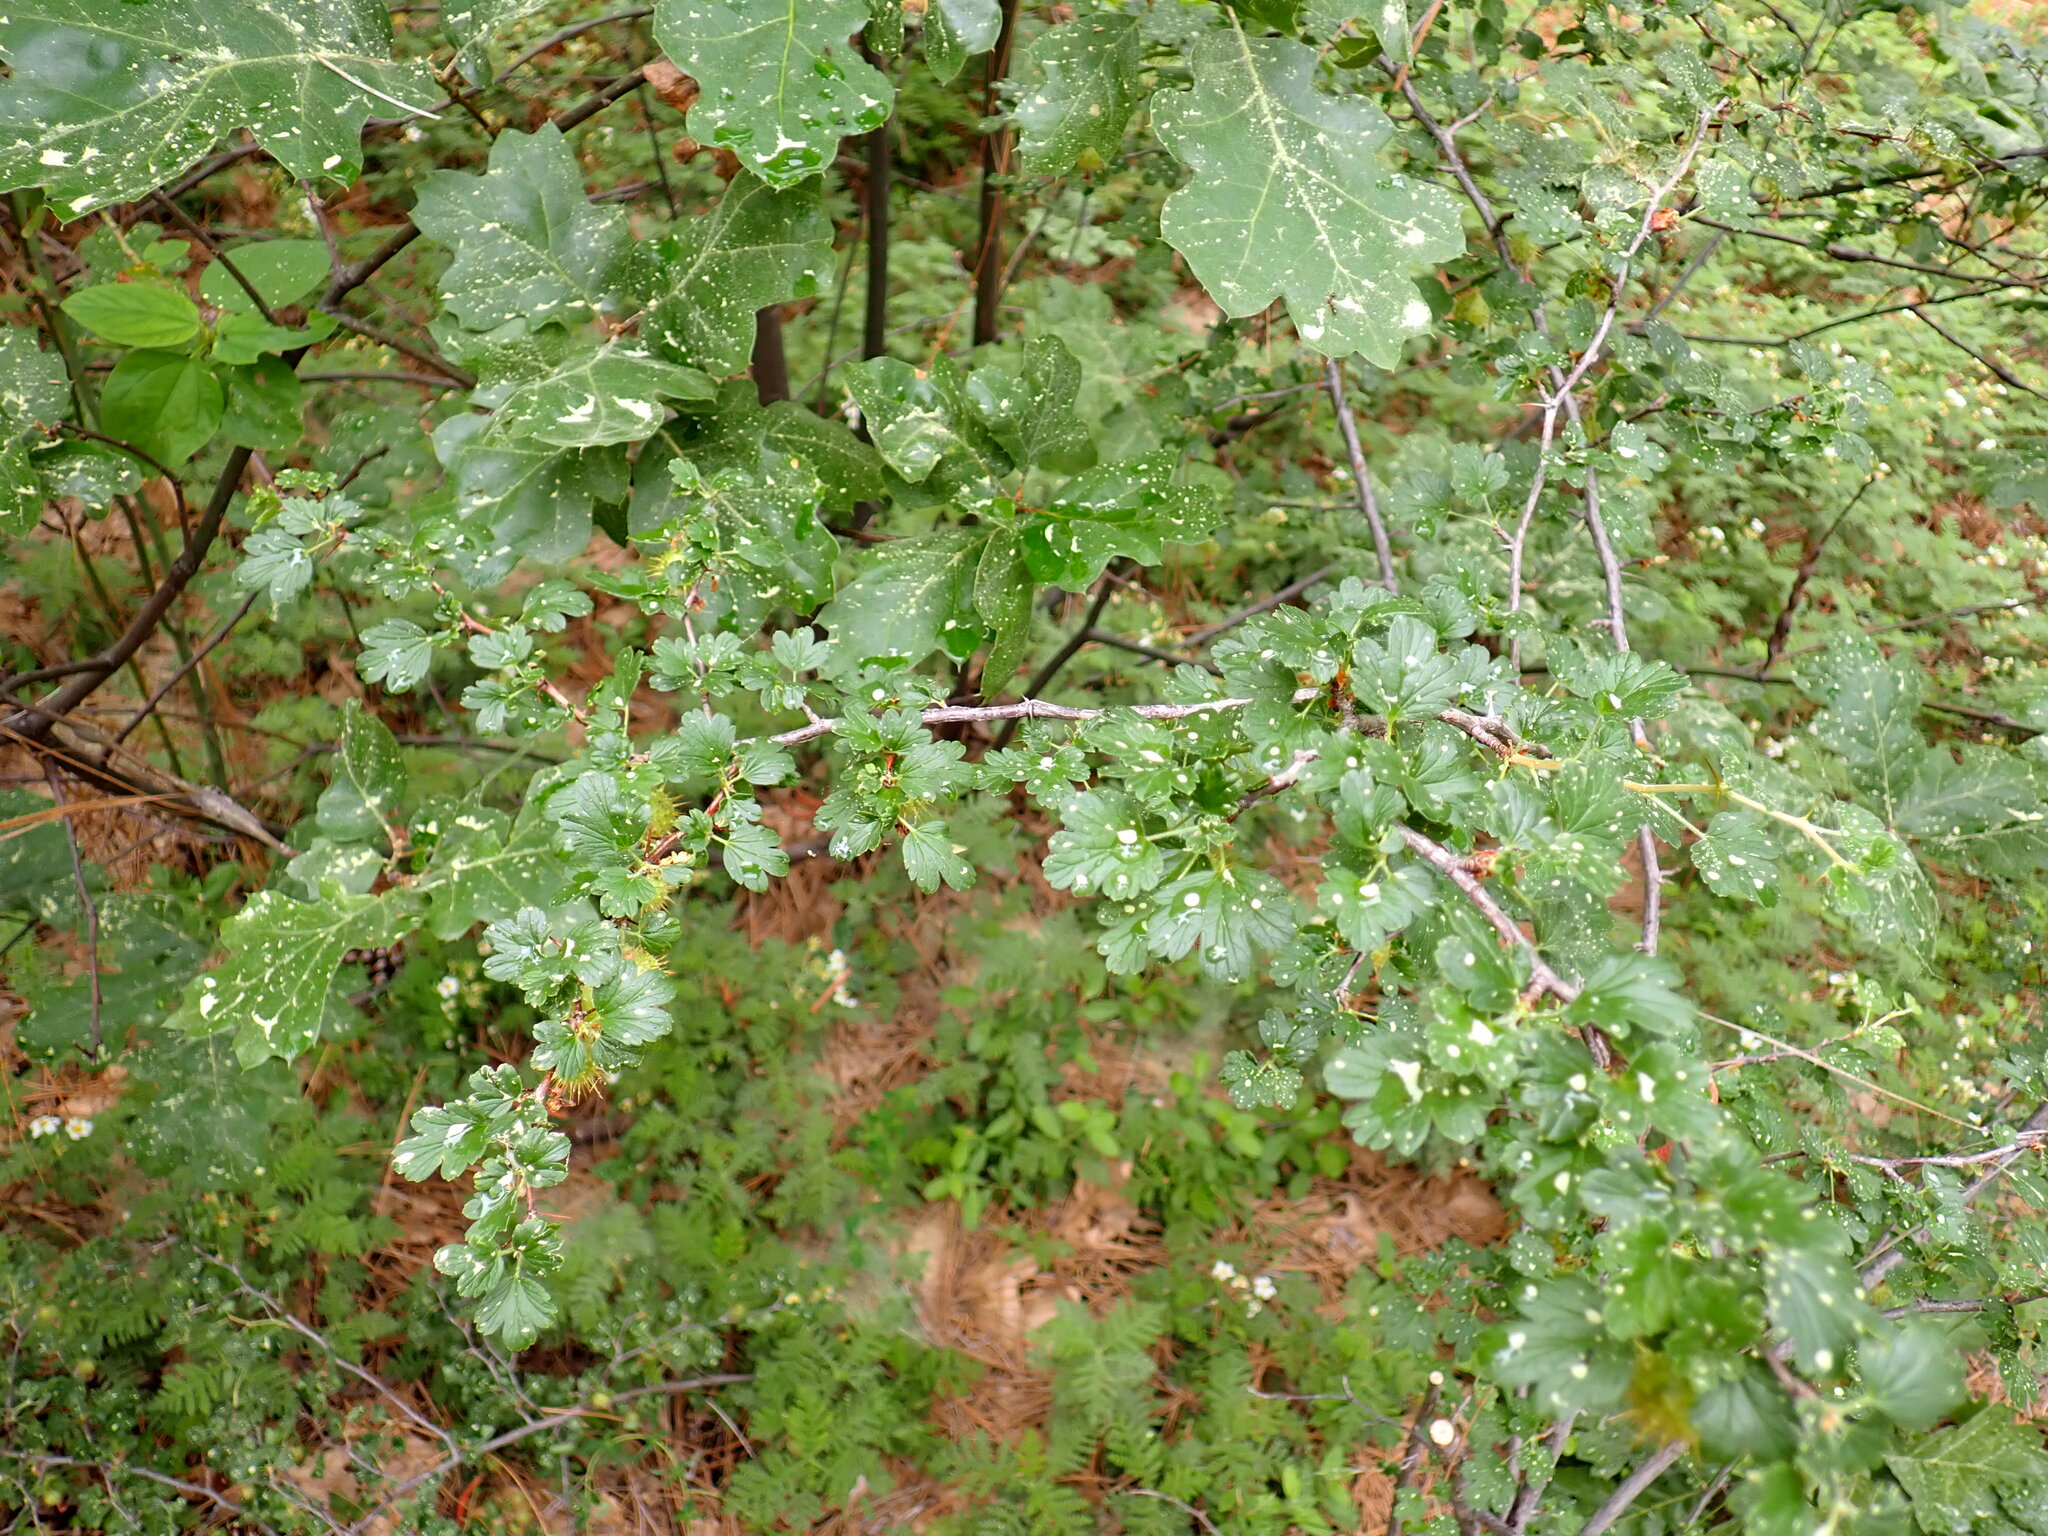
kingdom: Plantae
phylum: Tracheophyta
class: Magnoliopsida
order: Saxifragales
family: Grossulariaceae
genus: Ribes
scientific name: Ribes roezlii
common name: Sierra gooseberry
